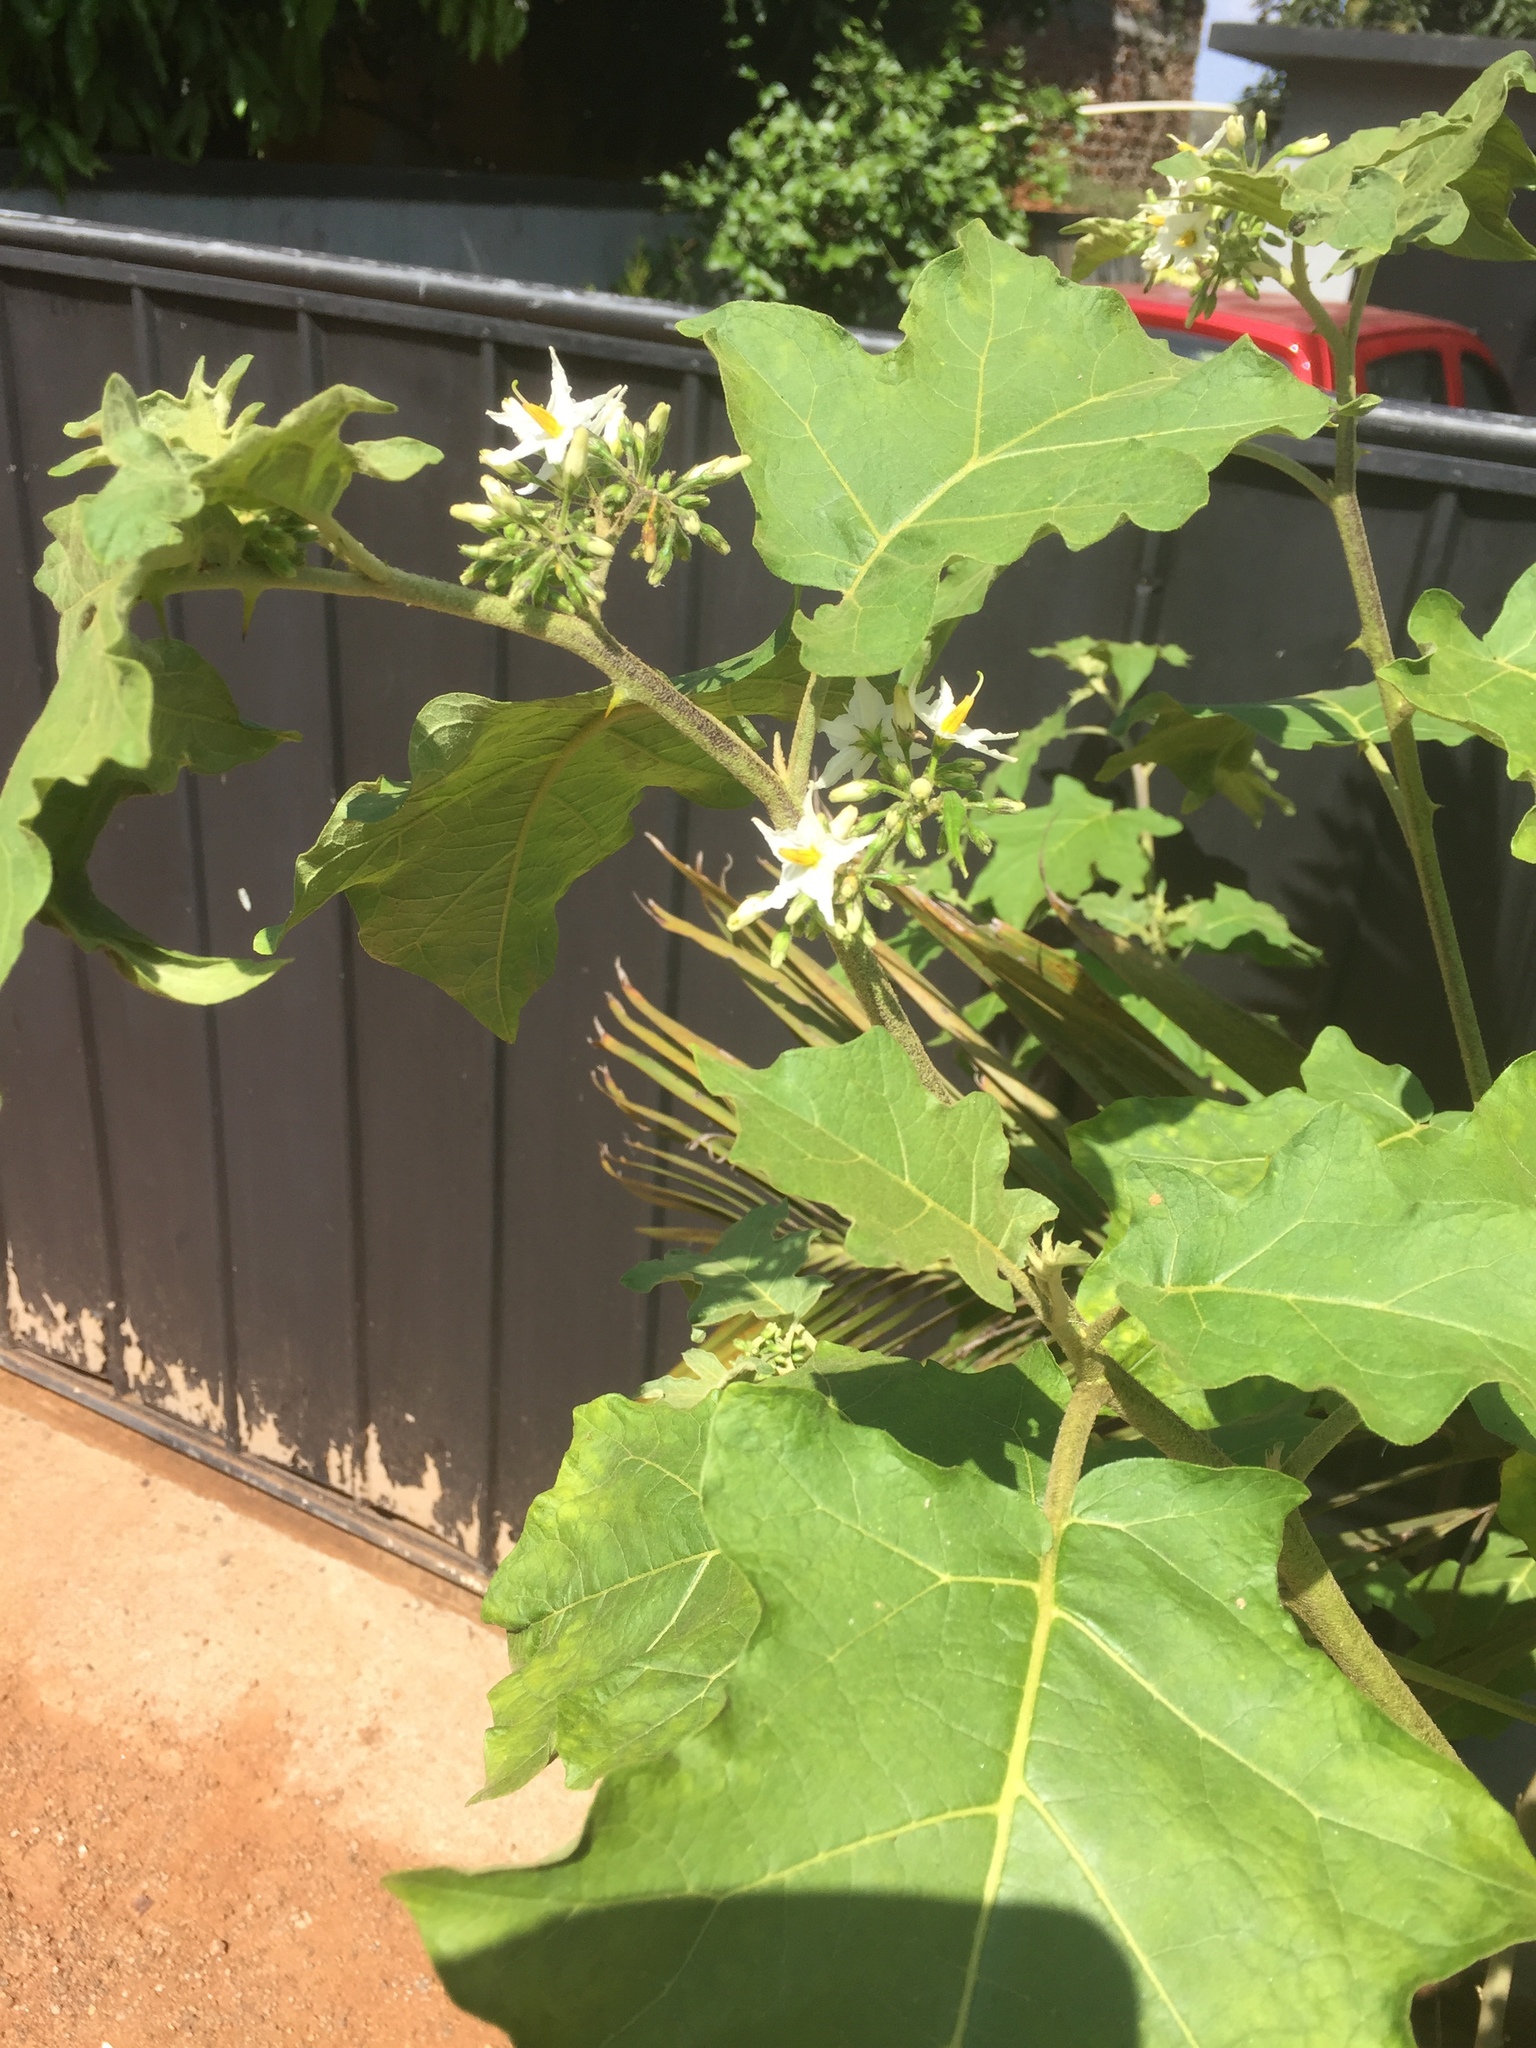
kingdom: Plantae
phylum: Tracheophyta
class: Magnoliopsida
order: Solanales
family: Solanaceae
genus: Solanum
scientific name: Solanum torvum
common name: Turkey berry
